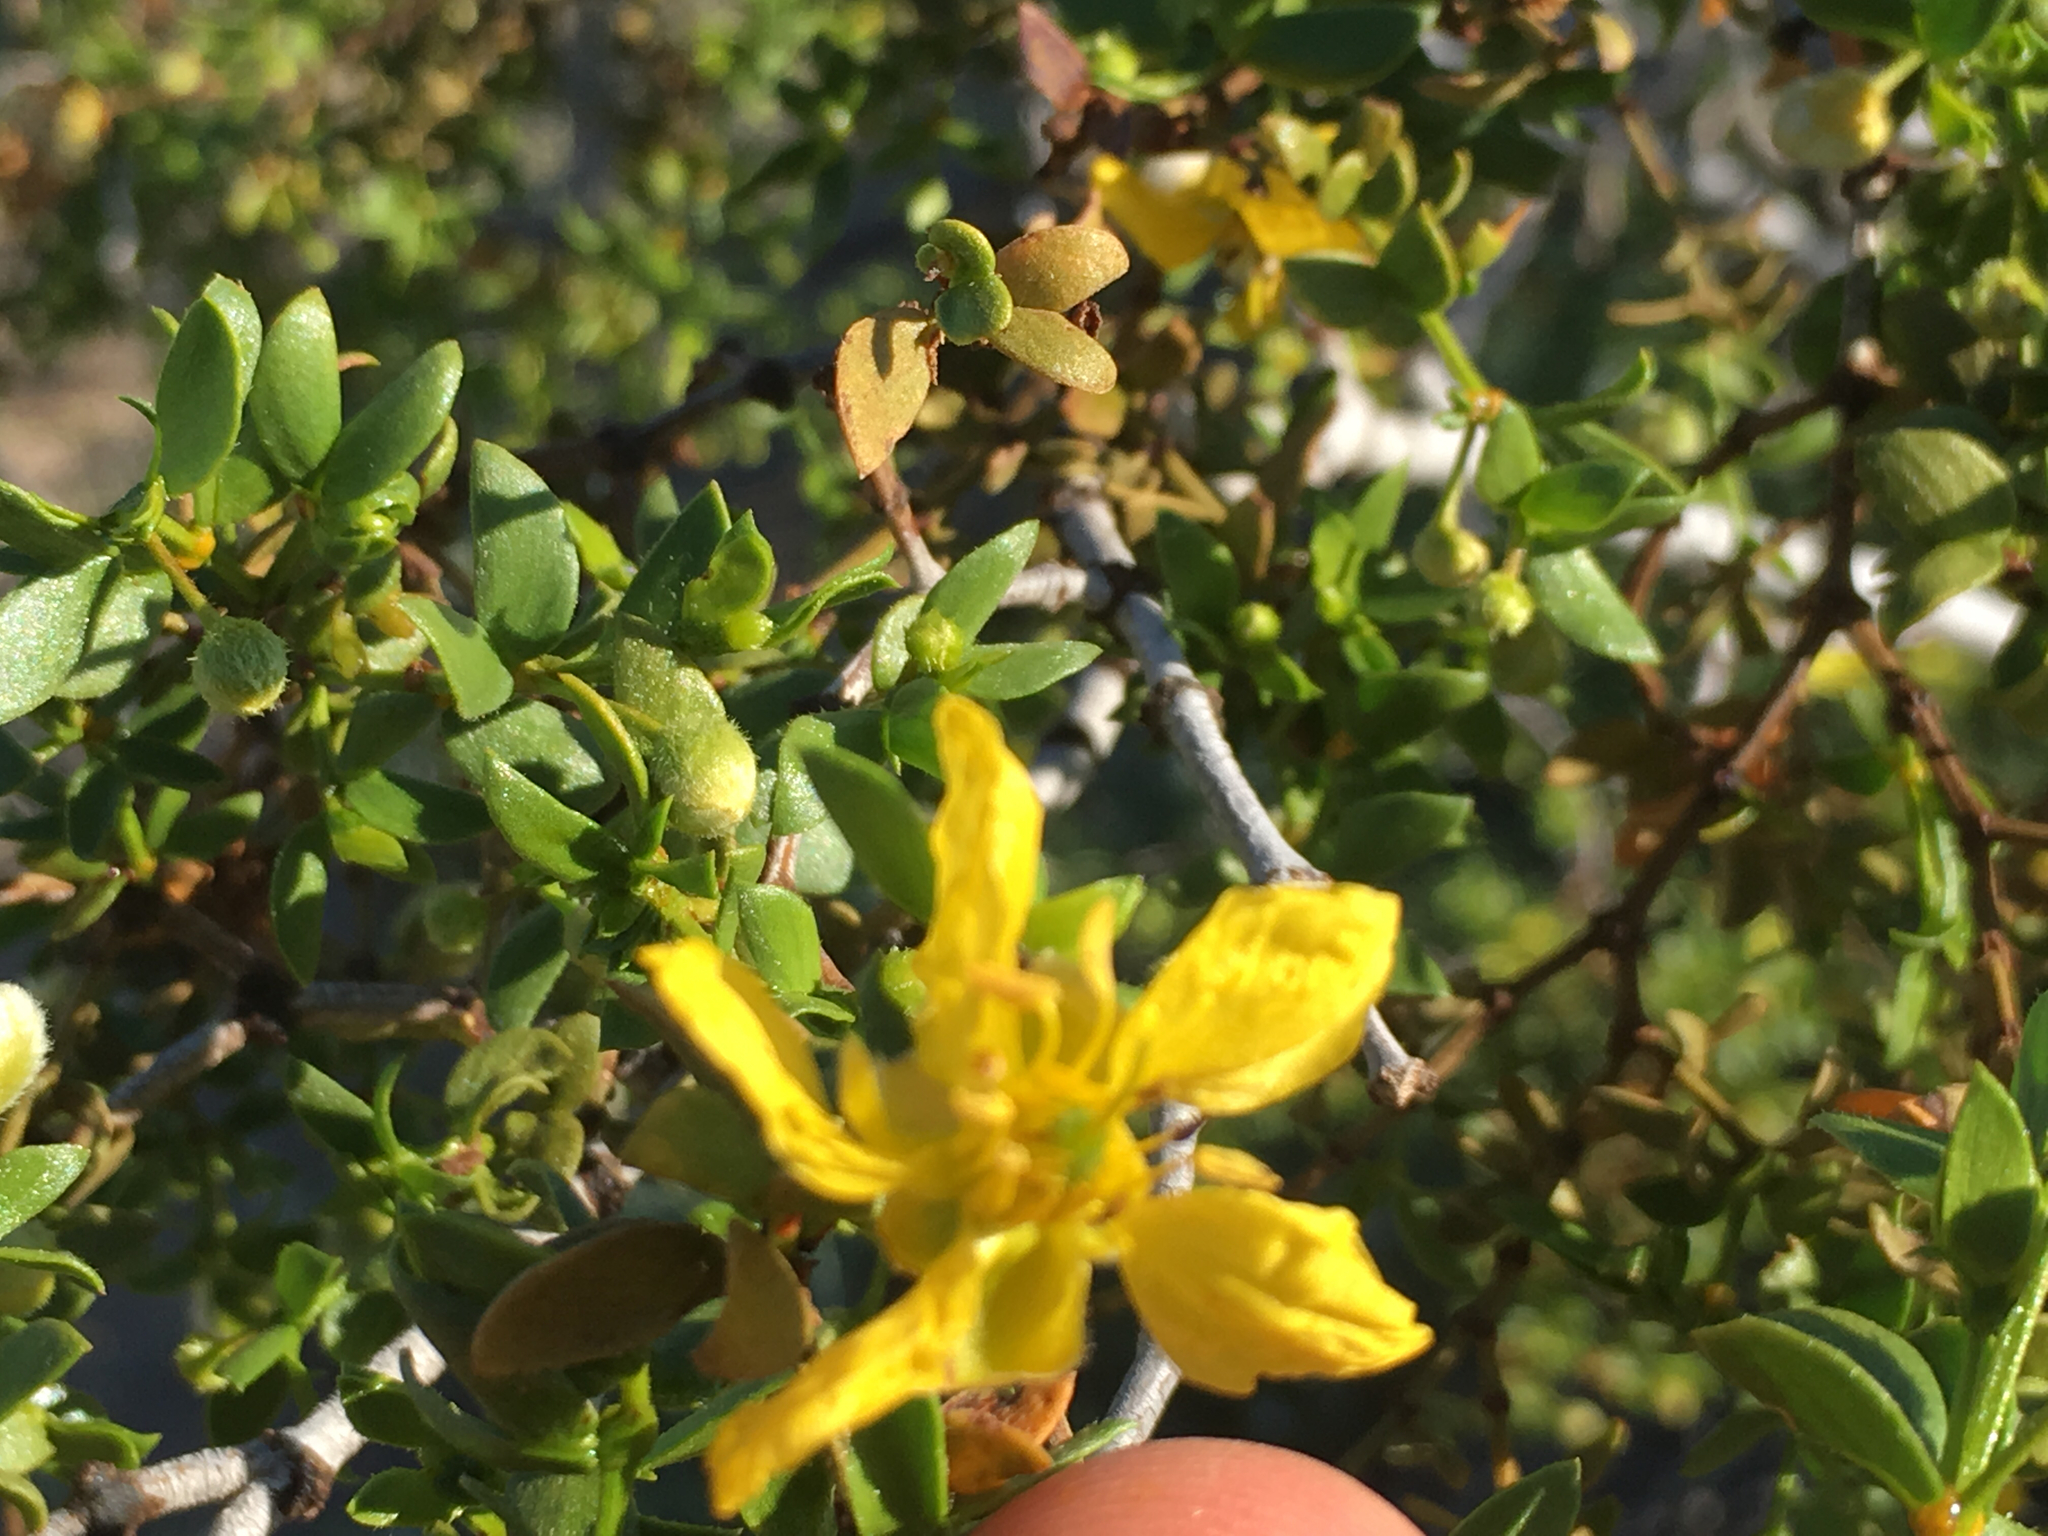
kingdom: Plantae
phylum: Tracheophyta
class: Magnoliopsida
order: Zygophyllales
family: Zygophyllaceae
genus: Larrea
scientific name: Larrea tridentata
